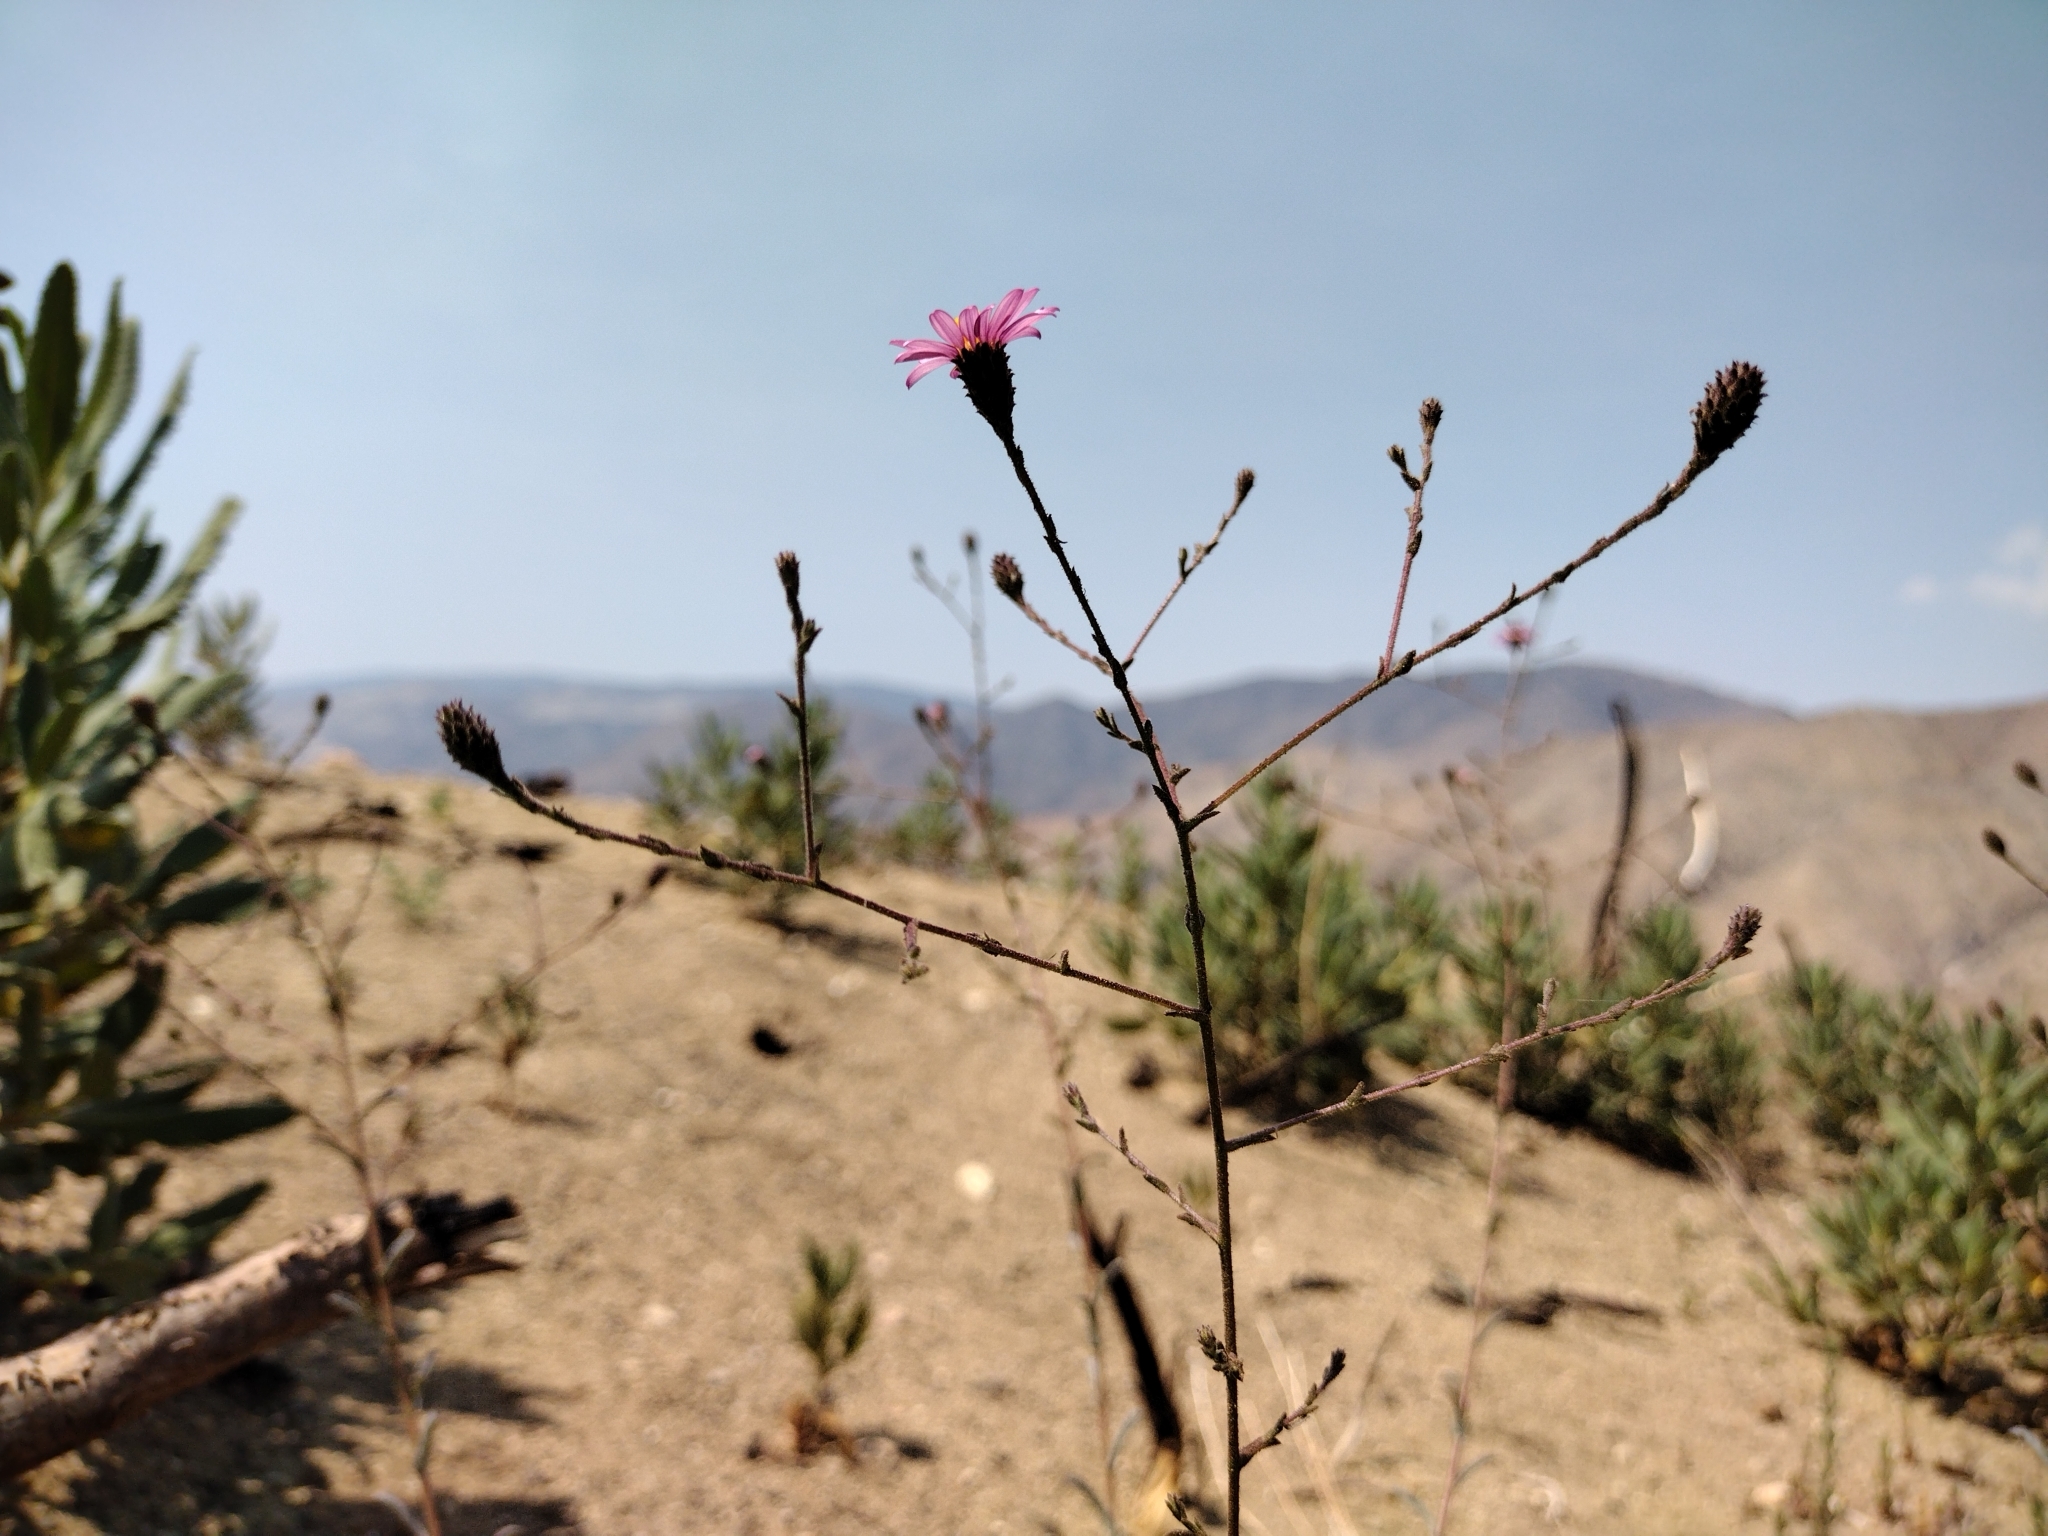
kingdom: Plantae
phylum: Tracheophyta
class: Magnoliopsida
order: Asterales
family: Asteraceae
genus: Corethrogyne
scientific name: Corethrogyne filaginifolia
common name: Sand-aster
